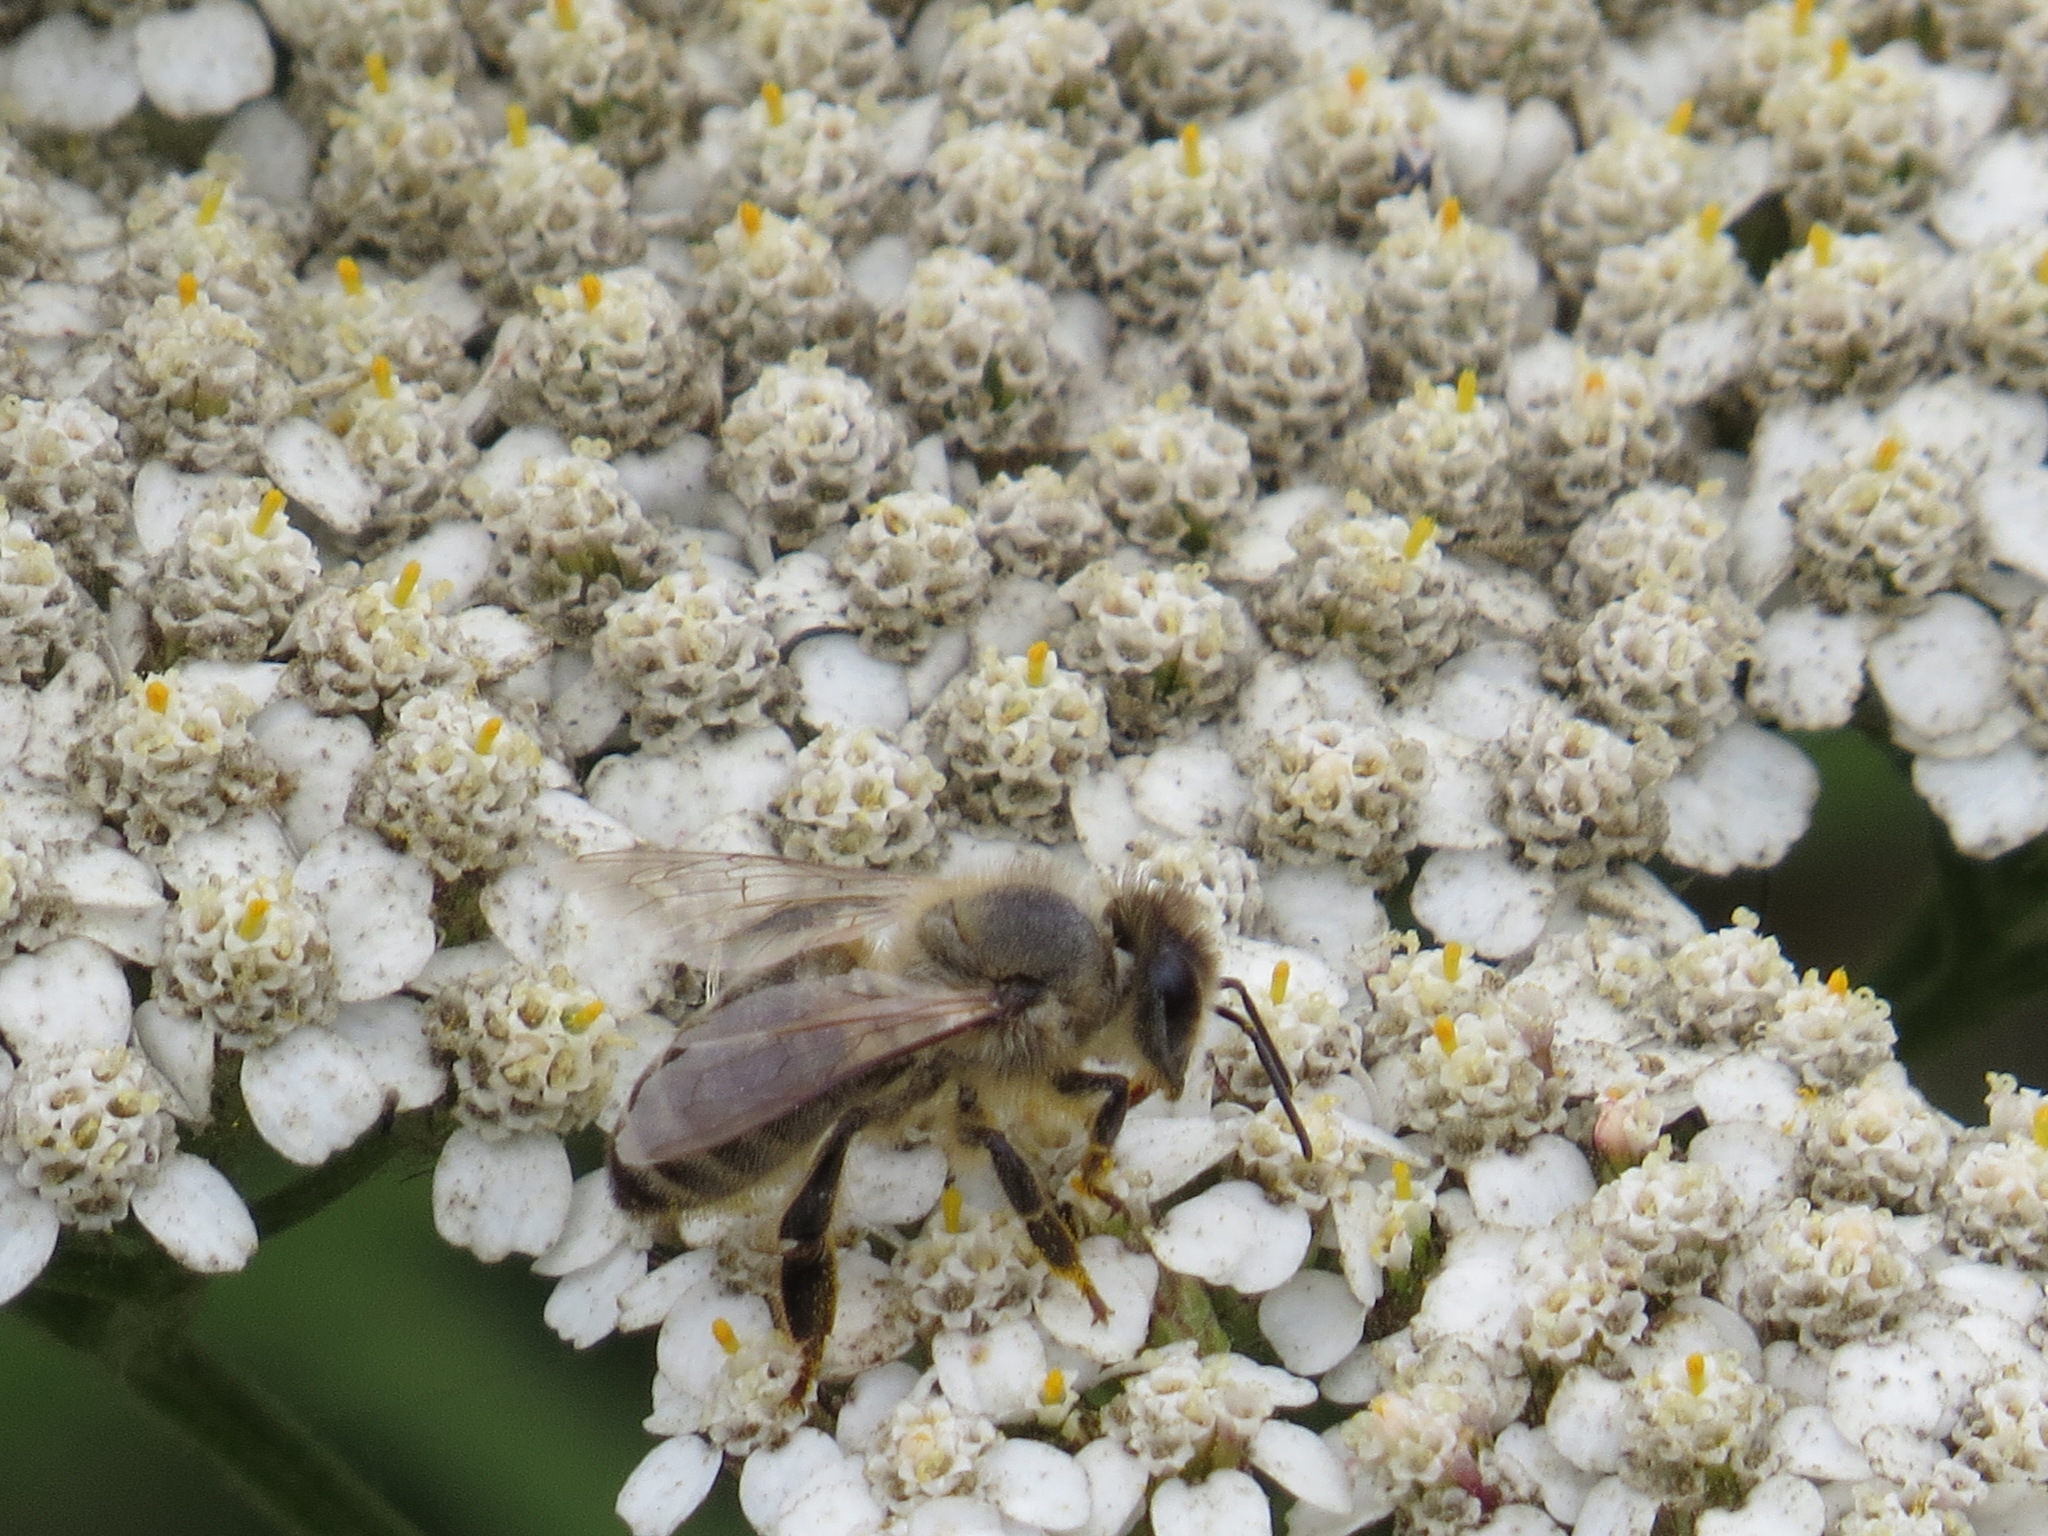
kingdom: Animalia
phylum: Arthropoda
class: Insecta
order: Hymenoptera
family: Apidae
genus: Apis
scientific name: Apis mellifera
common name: Honey bee
